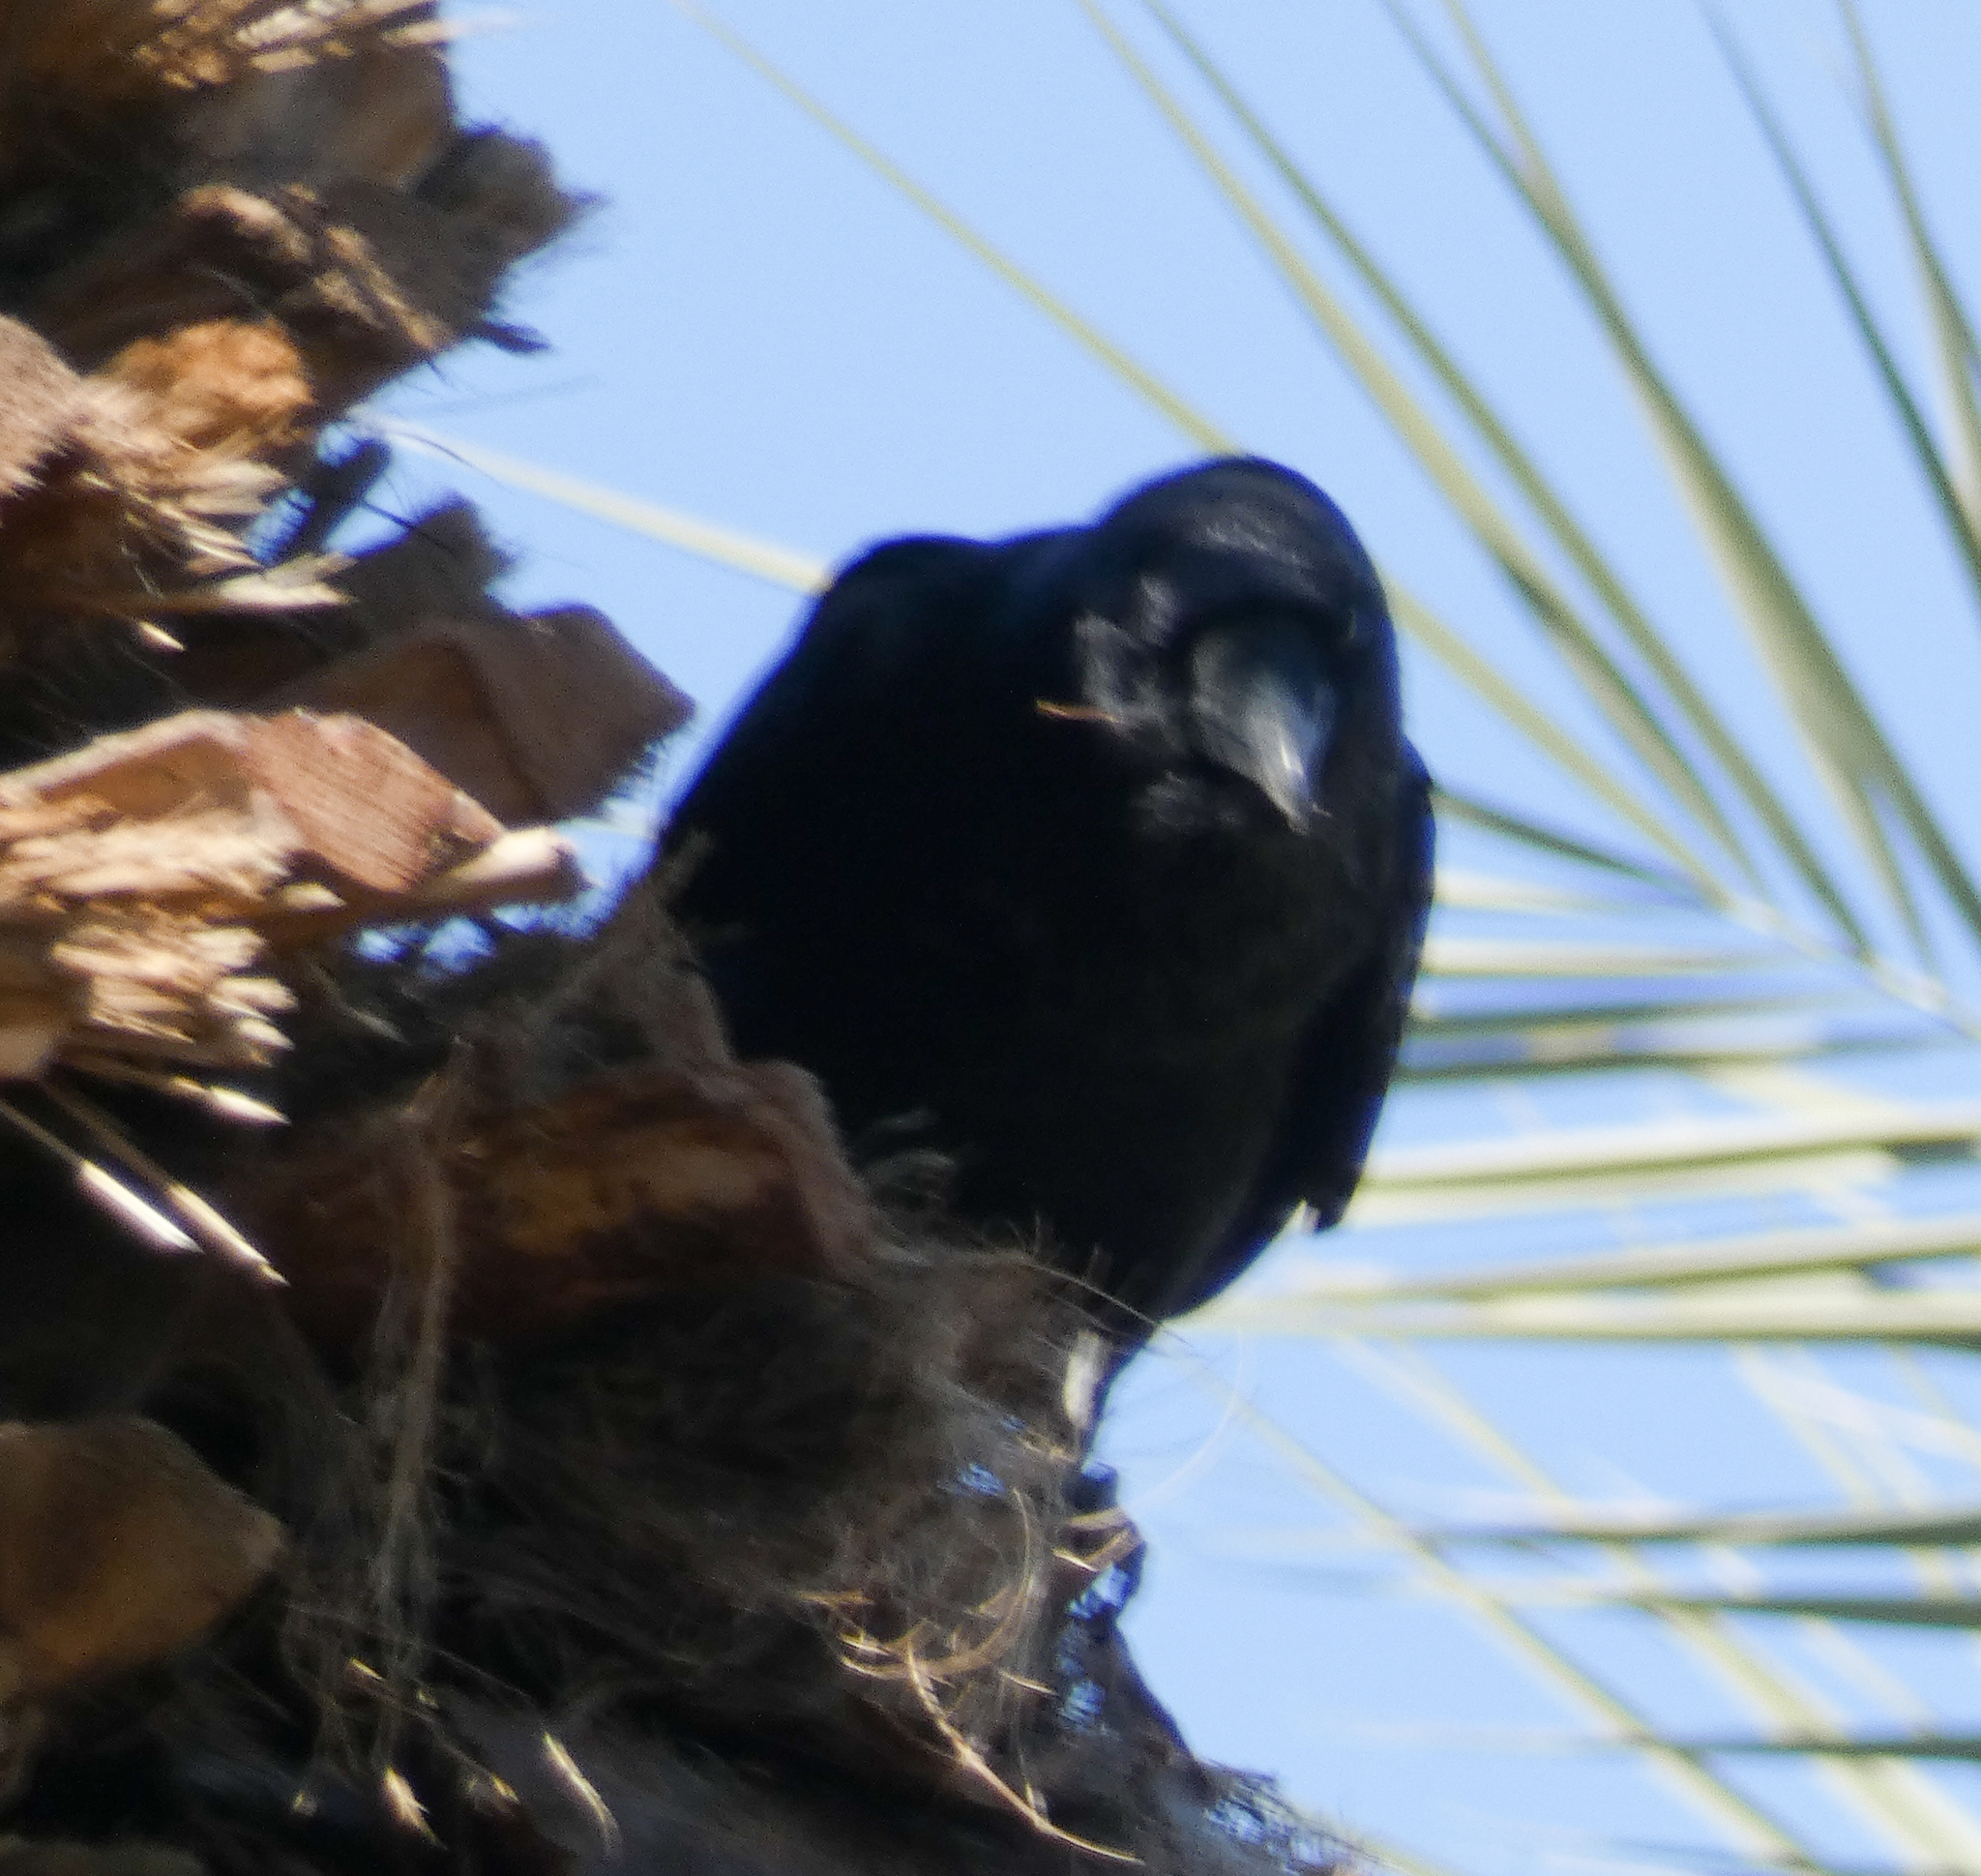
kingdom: Animalia
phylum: Chordata
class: Aves
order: Passeriformes
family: Corvidae
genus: Corvus
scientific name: Corvus corax
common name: Common raven
